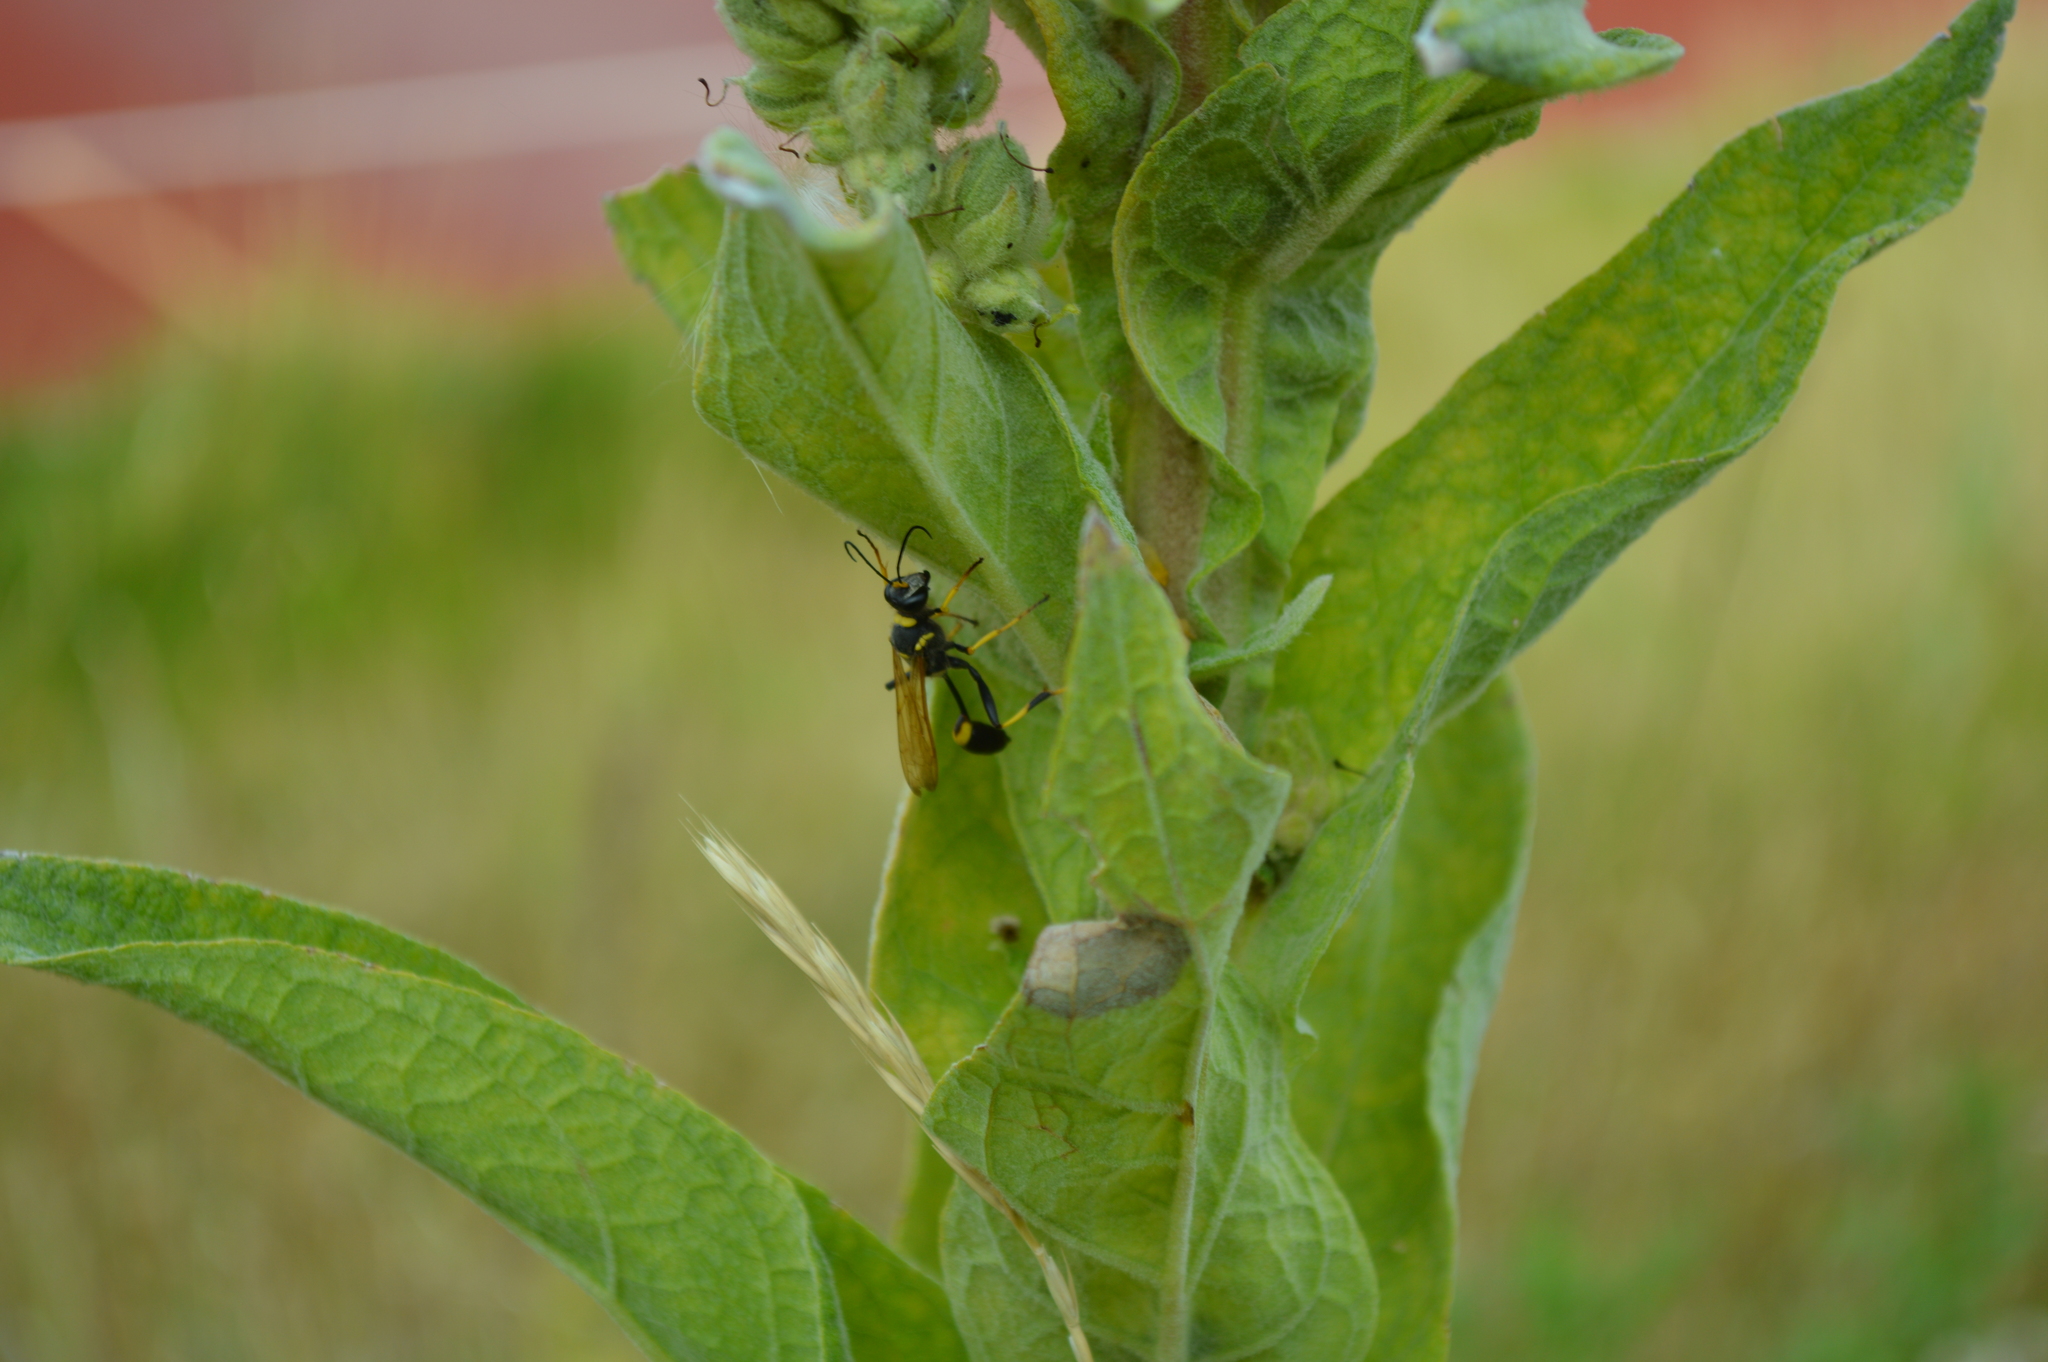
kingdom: Animalia
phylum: Arthropoda
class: Insecta
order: Hymenoptera
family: Sphecidae
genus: Sceliphron
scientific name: Sceliphron caementarium
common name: Mud dauber
